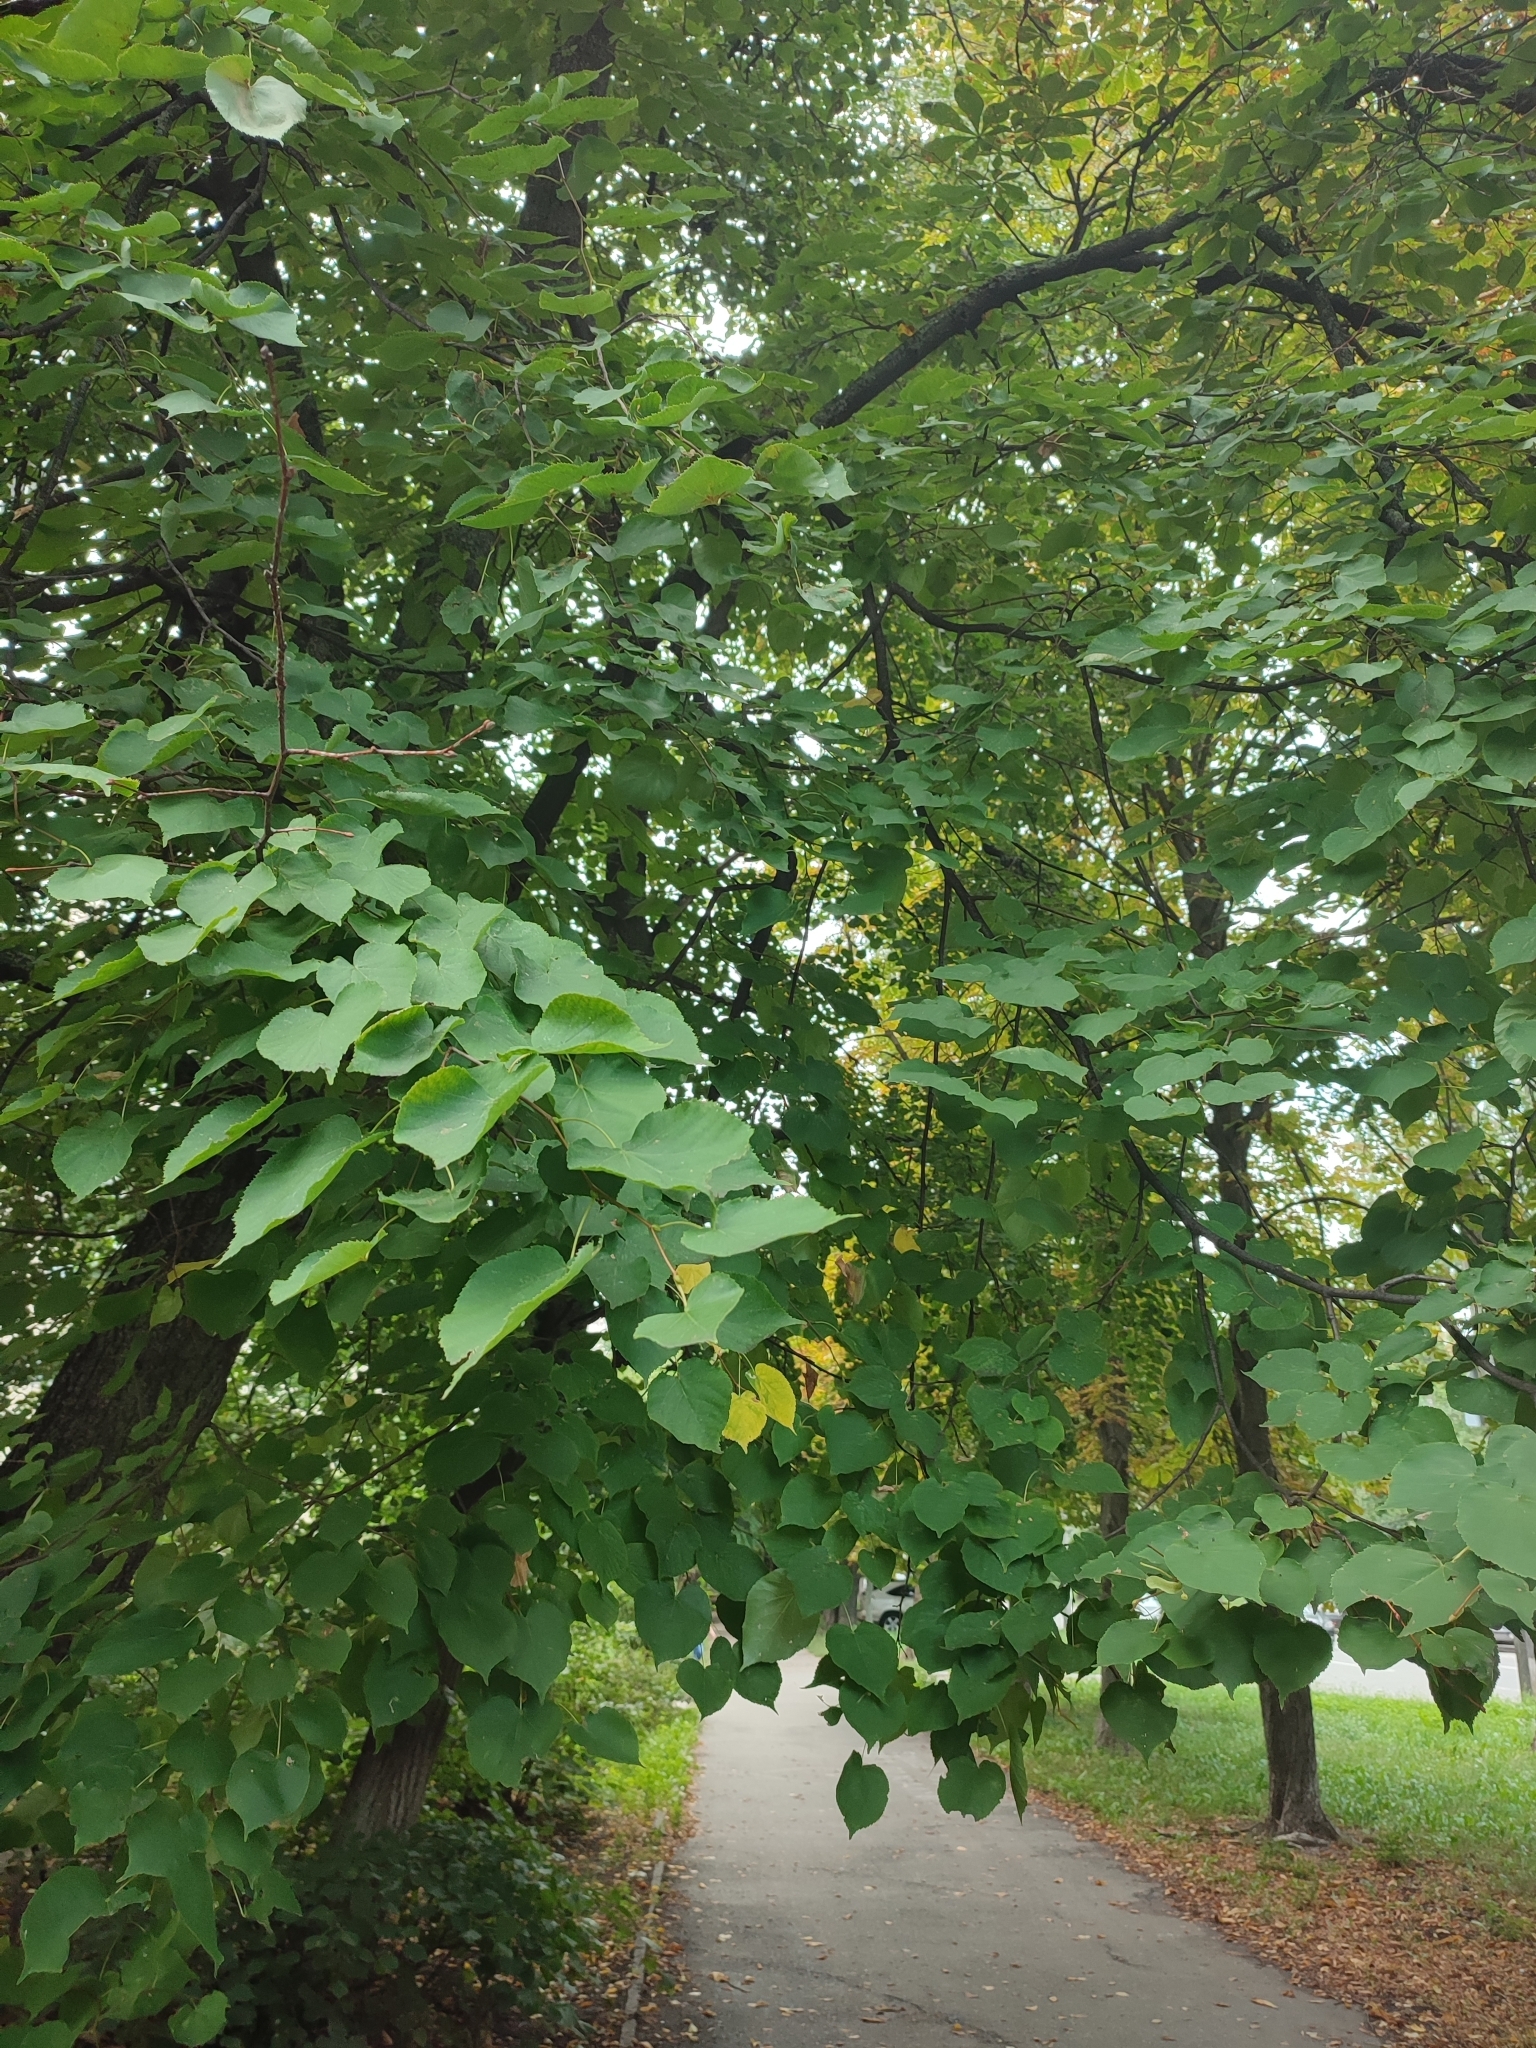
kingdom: Animalia
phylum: Arthropoda
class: Insecta
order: Lepidoptera
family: Nepticulidae
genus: Stigmella
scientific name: Stigmella tiliae
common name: Lime pigmy
